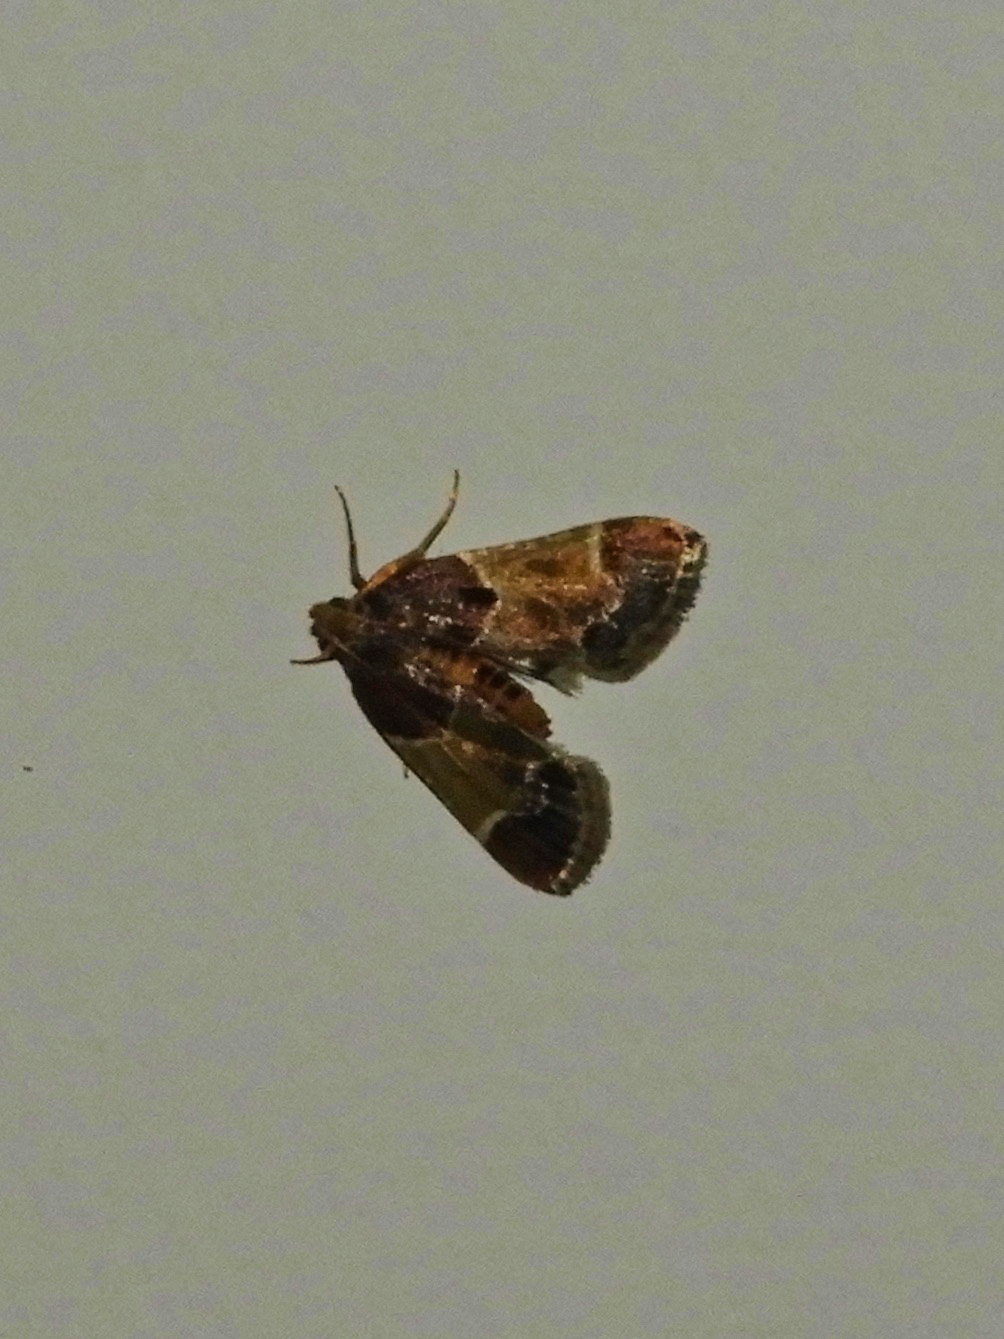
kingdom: Animalia
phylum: Arthropoda
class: Insecta
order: Lepidoptera
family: Pyralidae
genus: Pyralis
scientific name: Pyralis farinalis
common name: Meal moth
